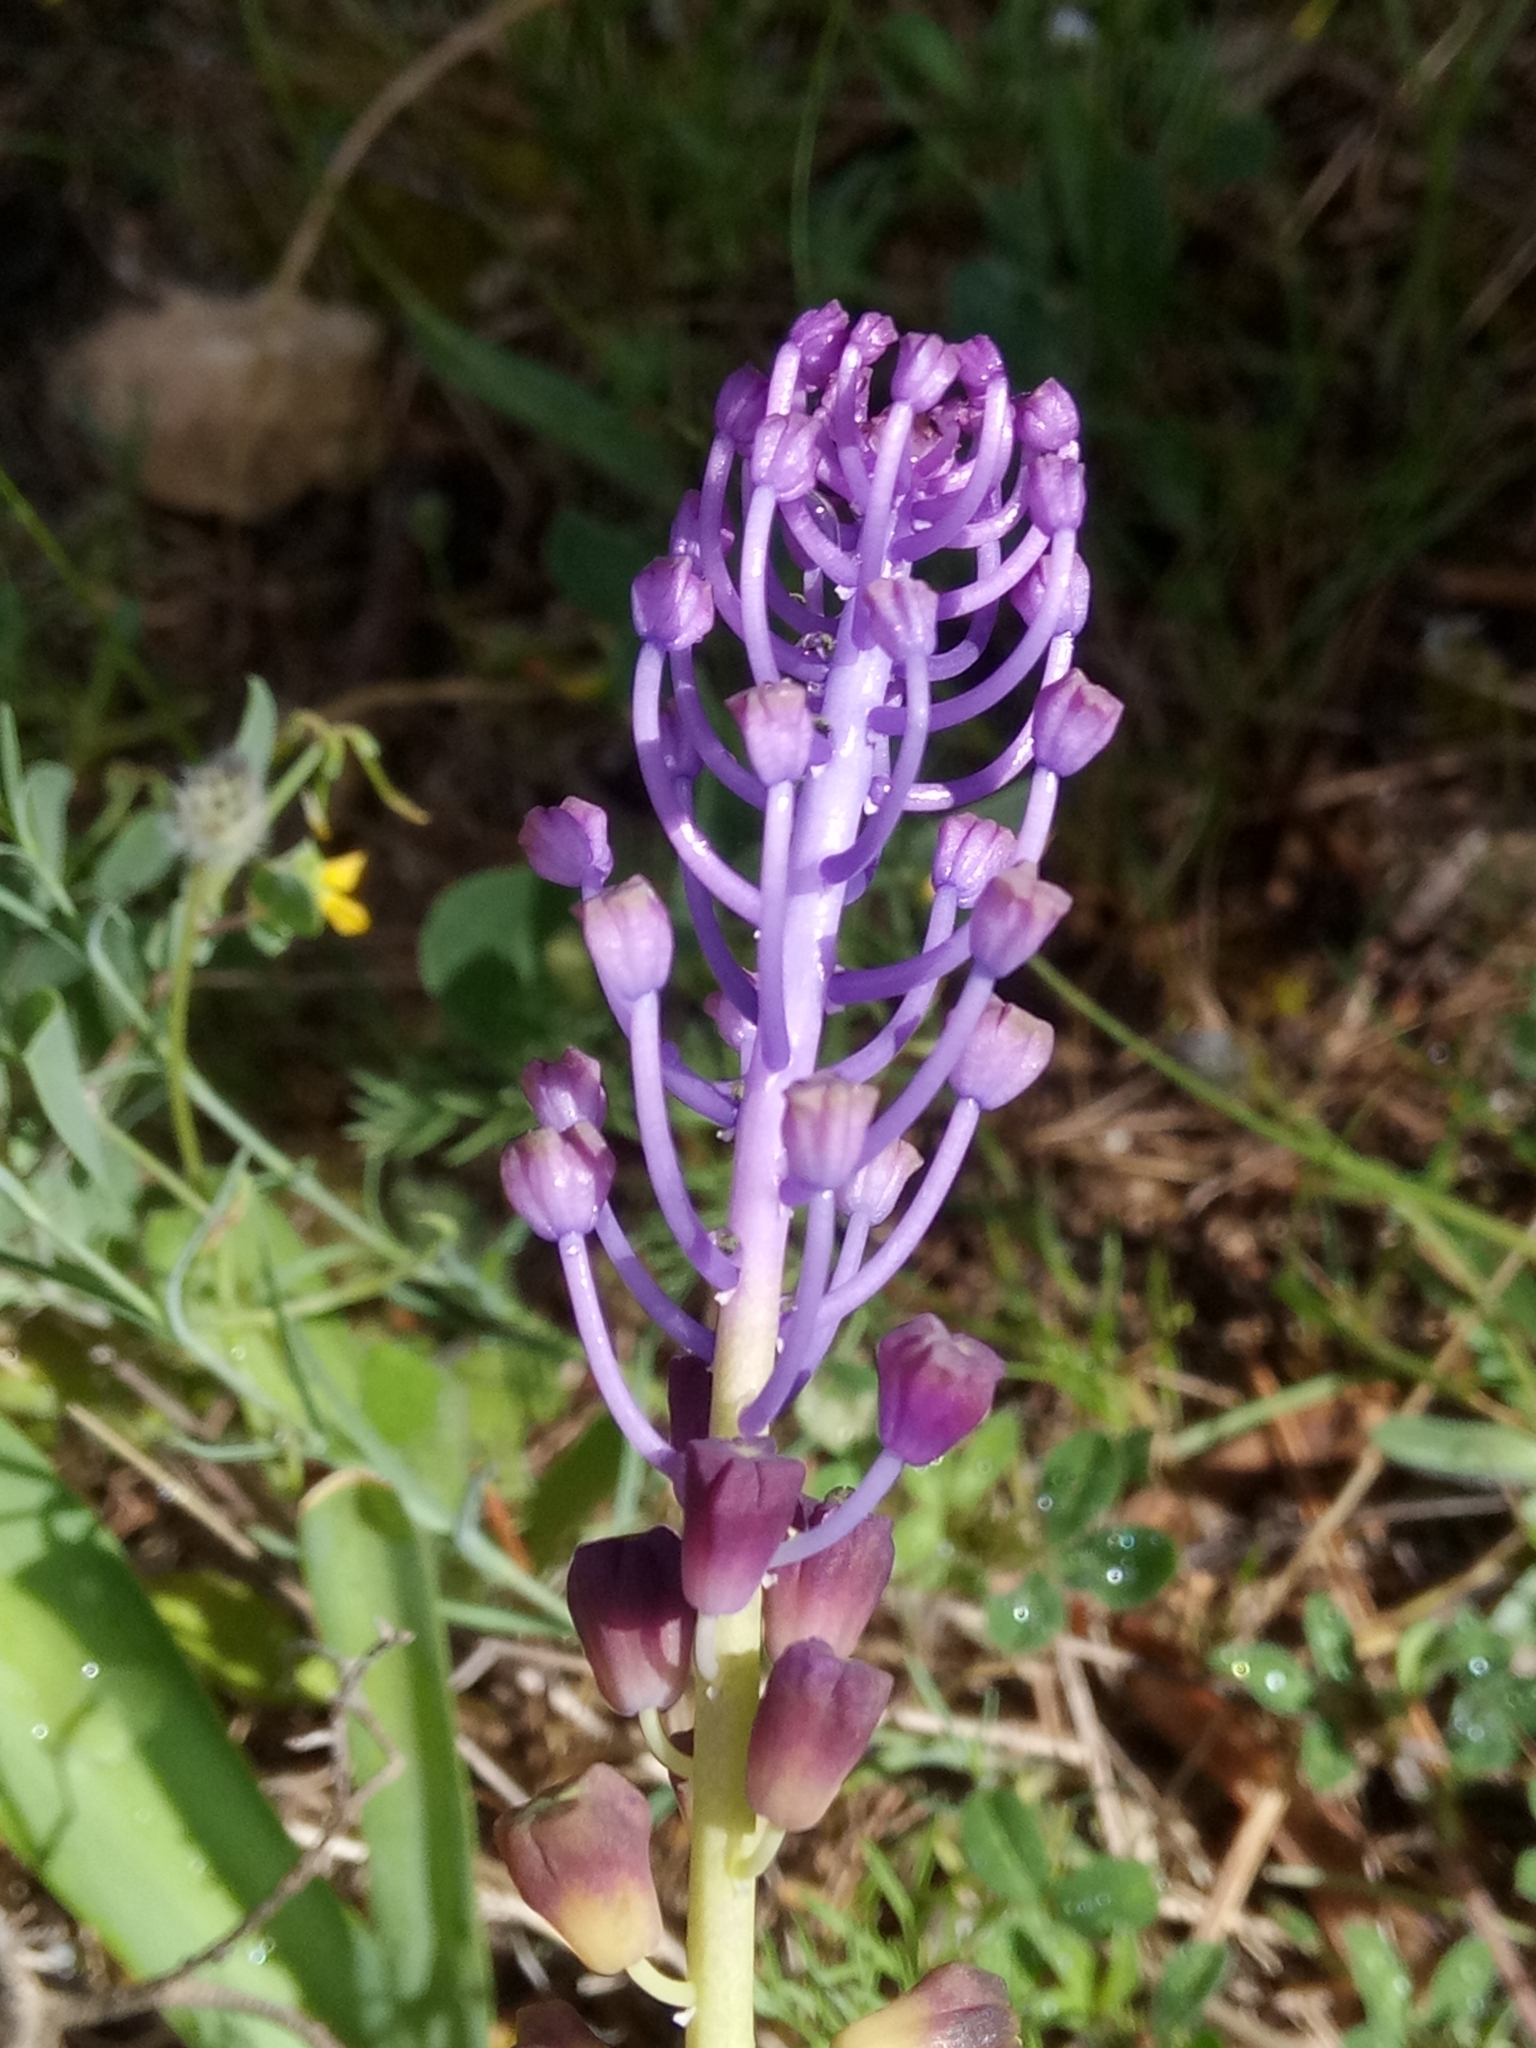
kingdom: Plantae
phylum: Tracheophyta
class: Liliopsida
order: Asparagales
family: Asparagaceae
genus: Muscari
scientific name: Muscari comosum
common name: Tassel hyacinth
